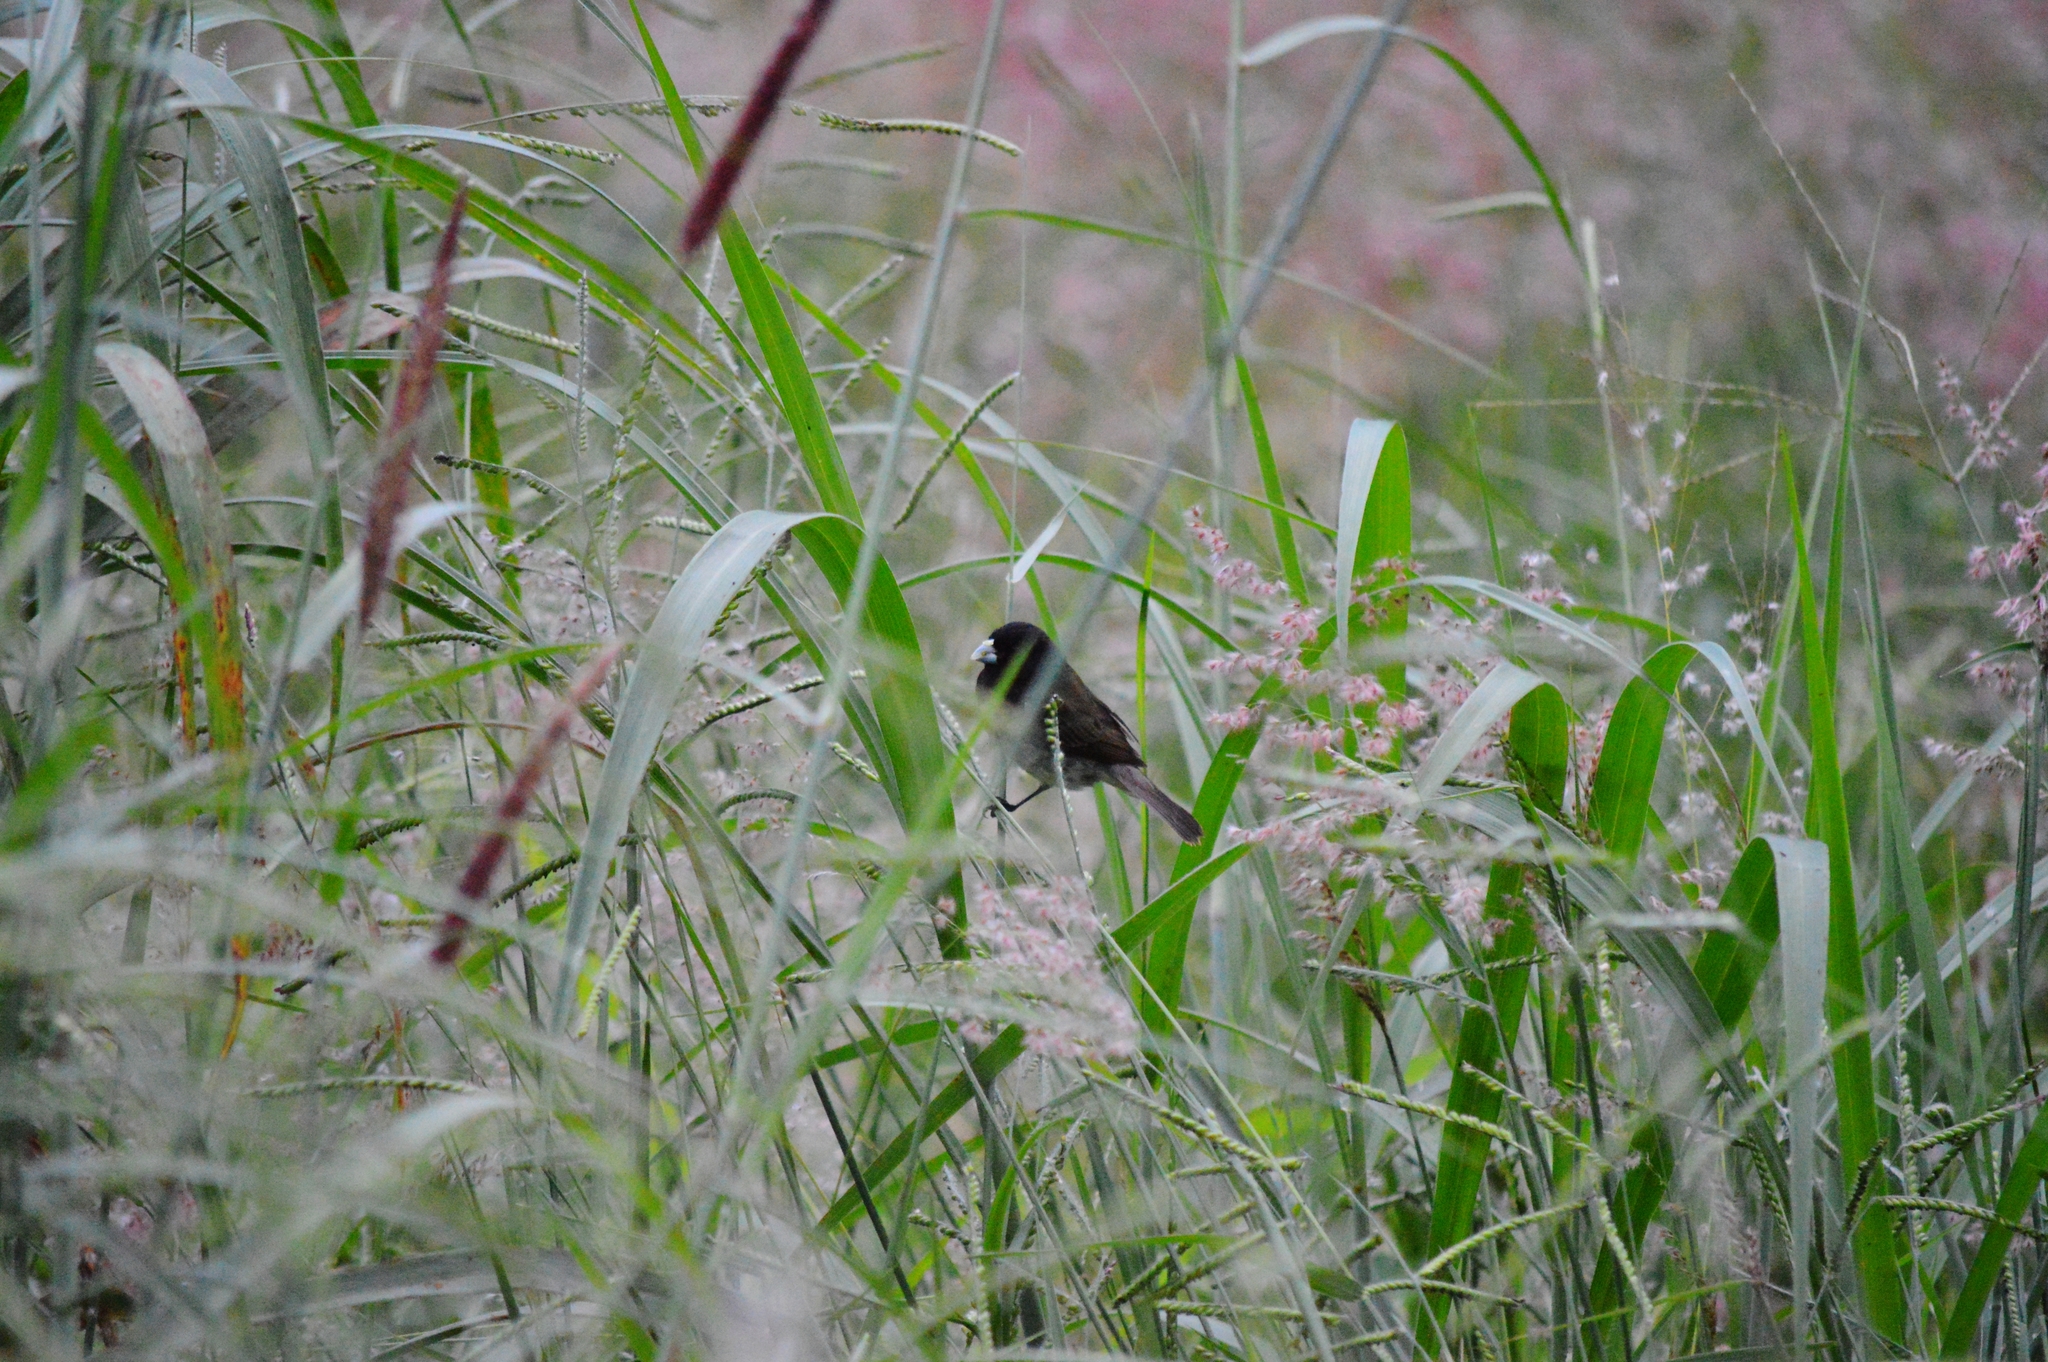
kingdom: Animalia
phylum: Chordata
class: Aves
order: Passeriformes
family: Thraupidae
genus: Sporophila
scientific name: Sporophila nigricollis
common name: Yellow-bellied seedeater
